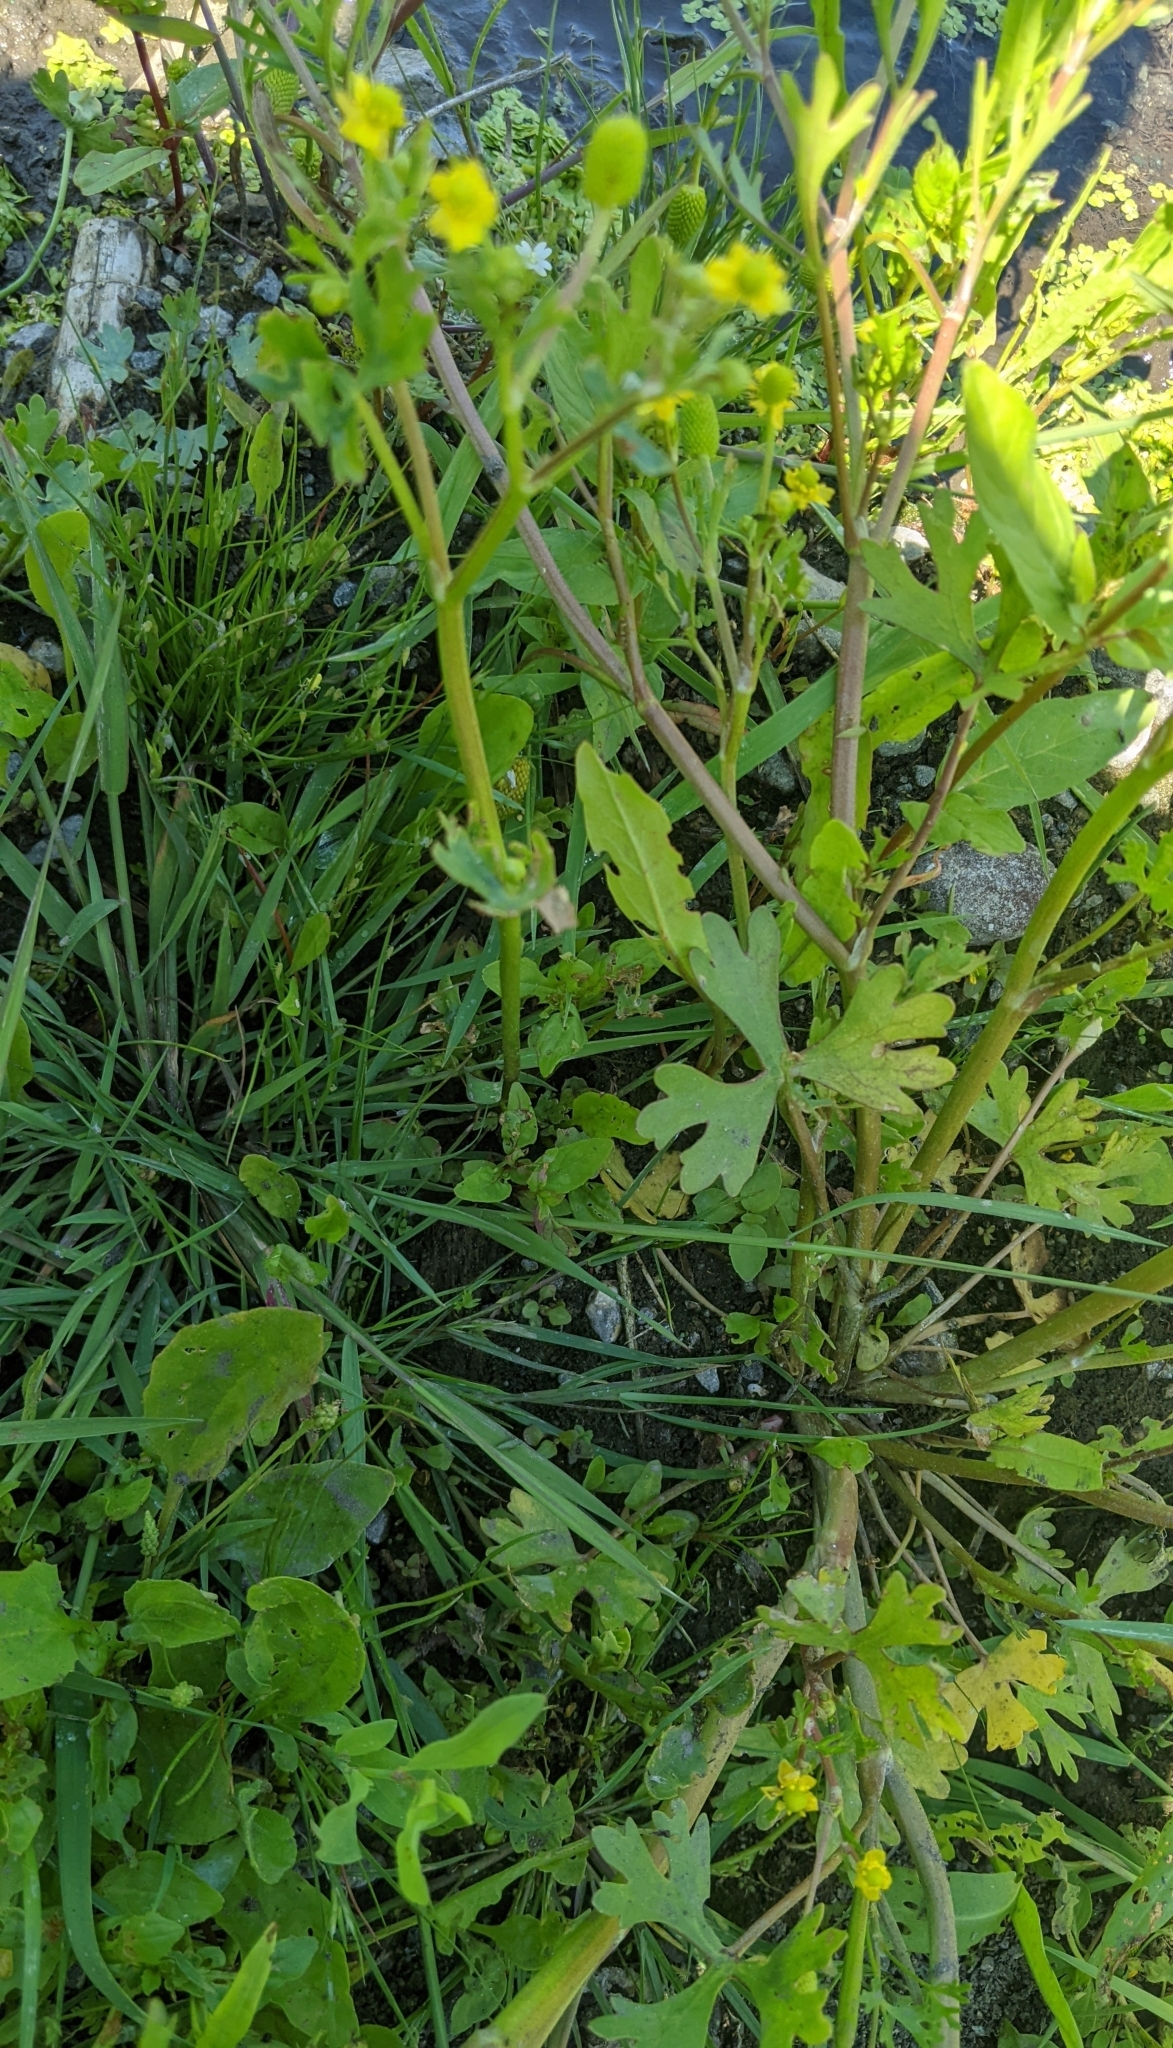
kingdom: Plantae
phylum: Tracheophyta
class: Magnoliopsida
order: Ranunculales
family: Ranunculaceae
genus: Ranunculus
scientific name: Ranunculus sceleratus
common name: Celery-leaved buttercup
